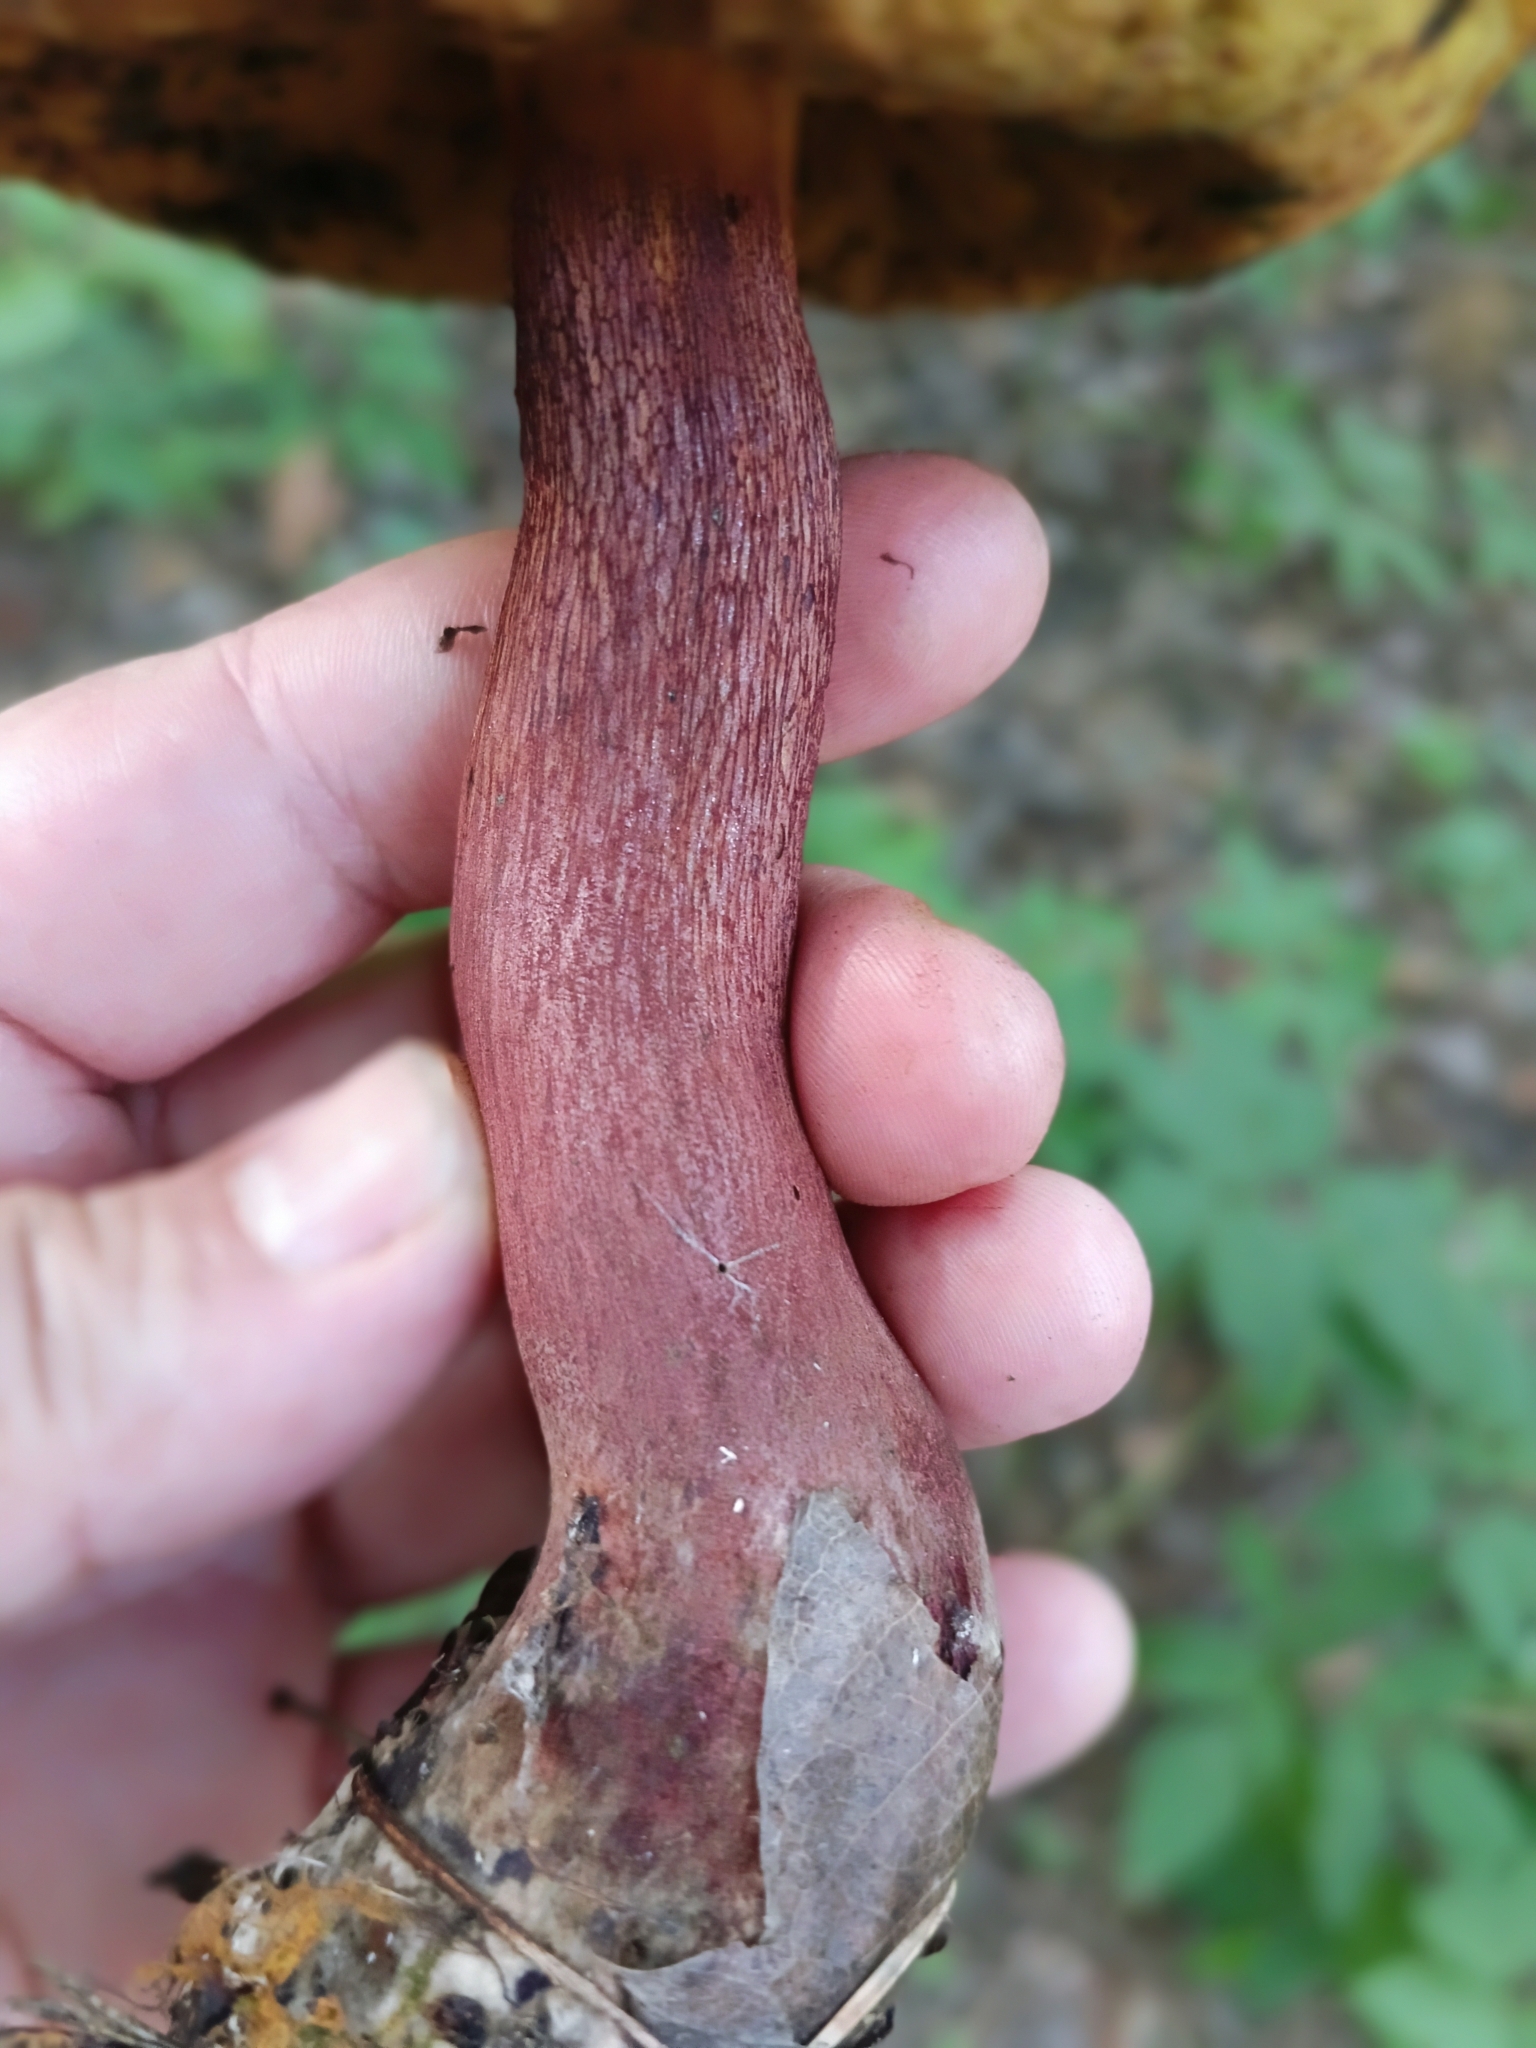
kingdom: Fungi
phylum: Basidiomycota
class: Agaricomycetes
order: Boletales
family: Boletaceae
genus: Suillellus
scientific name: Suillellus luridus
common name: Lurid bolete
